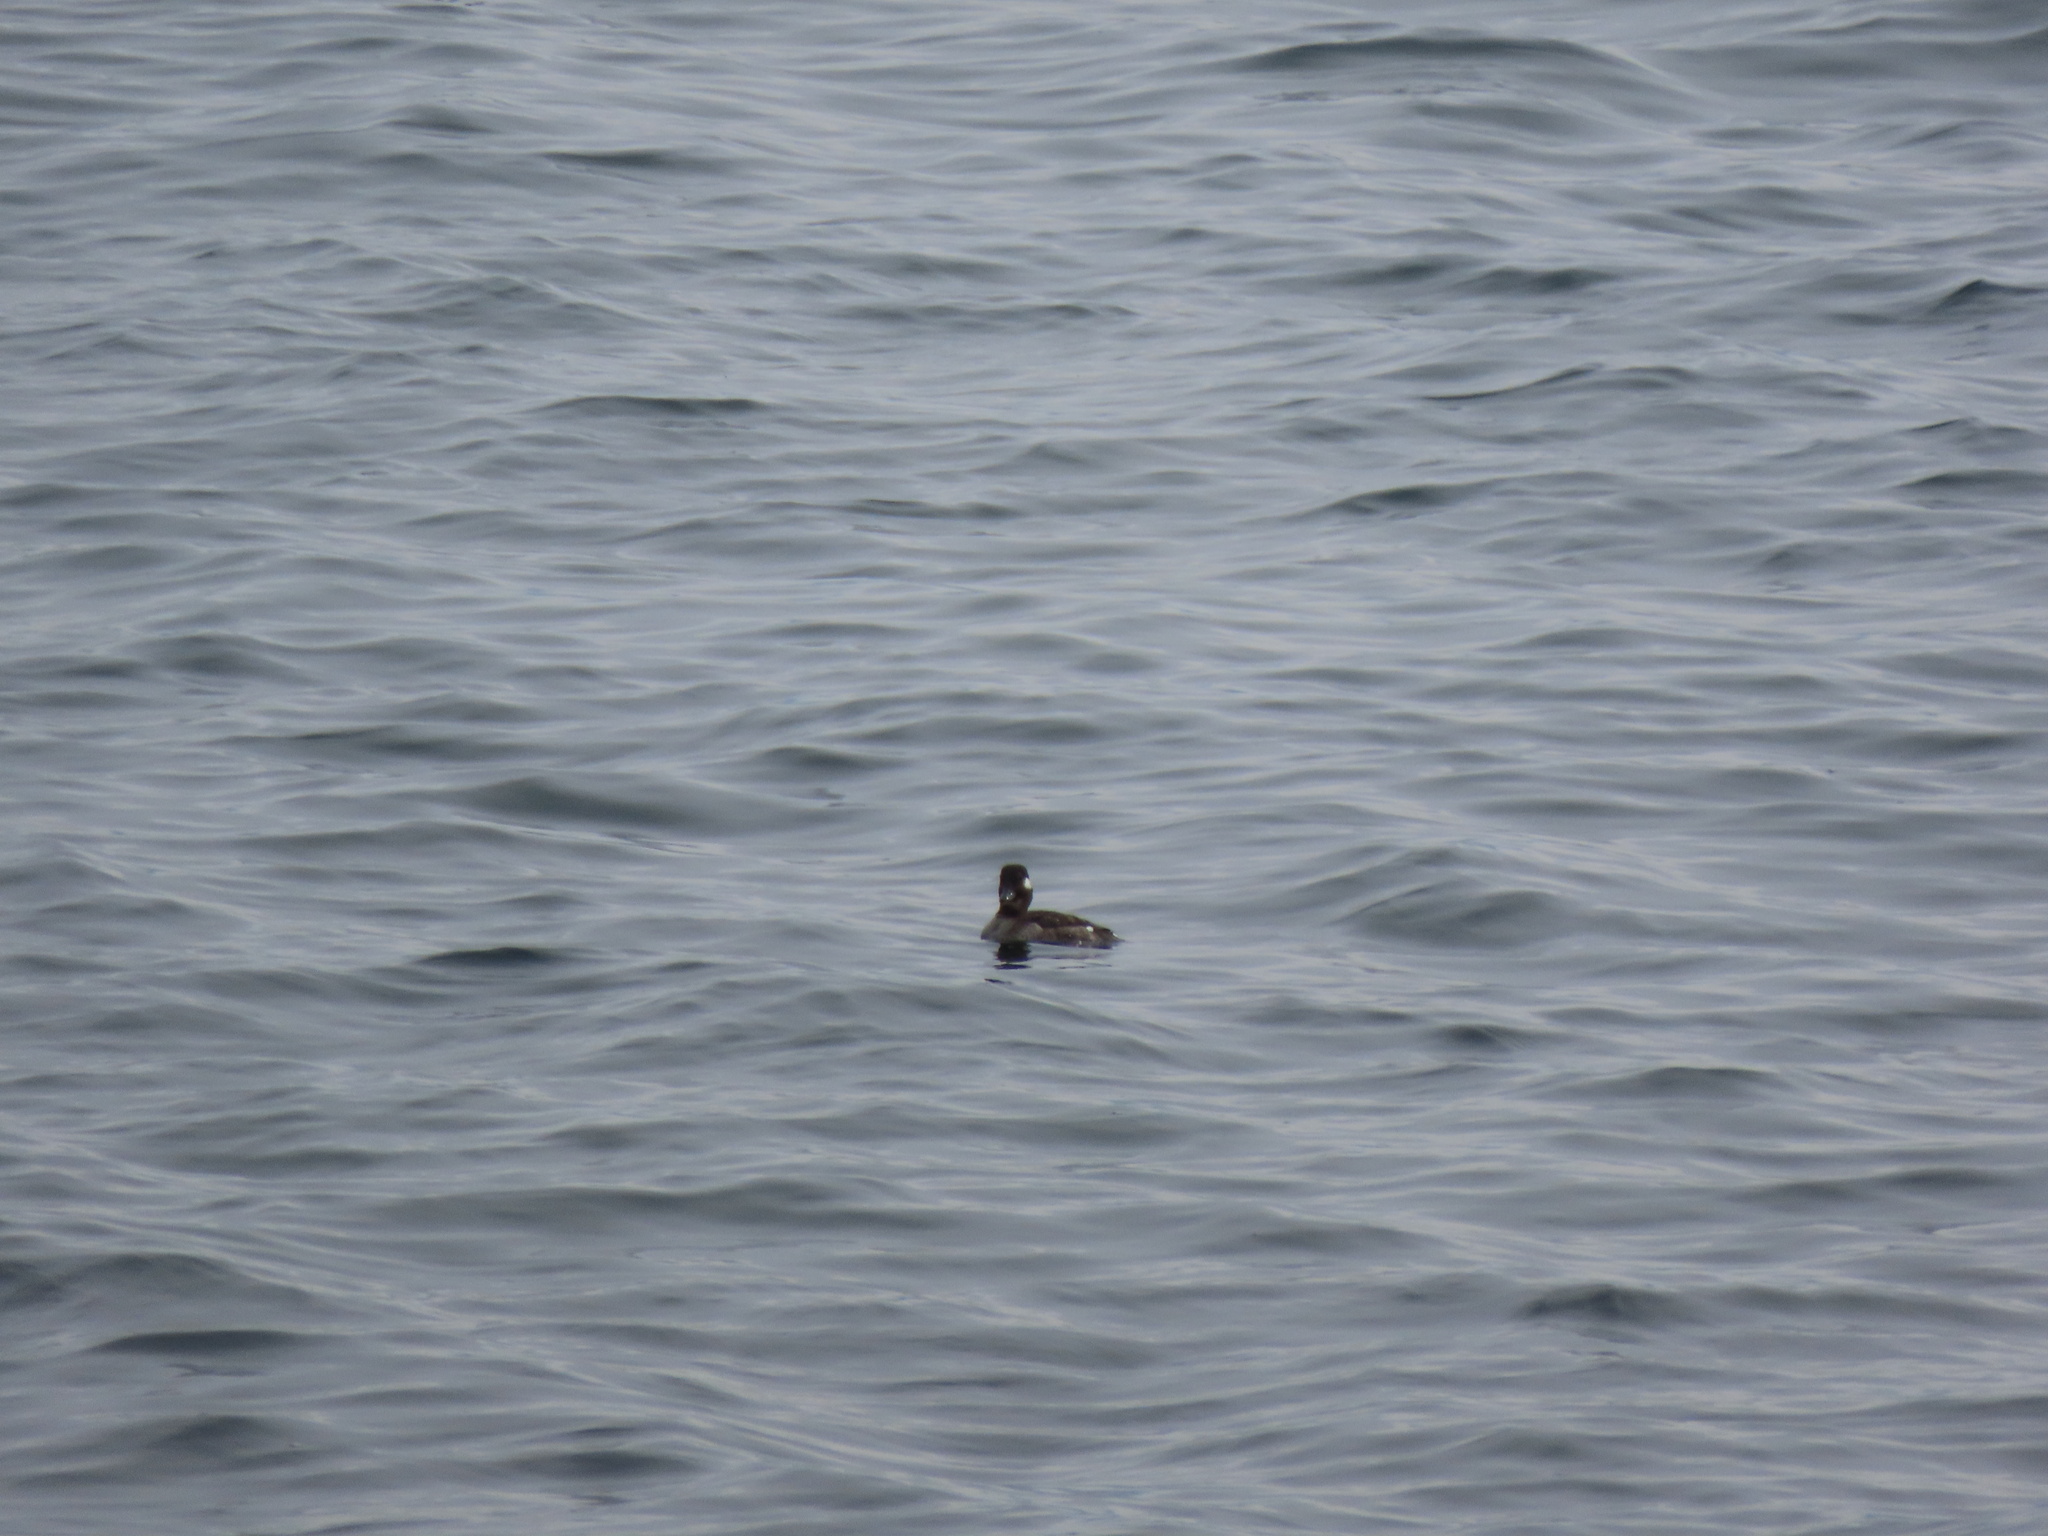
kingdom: Animalia
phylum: Chordata
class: Aves
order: Anseriformes
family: Anatidae
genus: Bucephala
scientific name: Bucephala albeola
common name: Bufflehead
